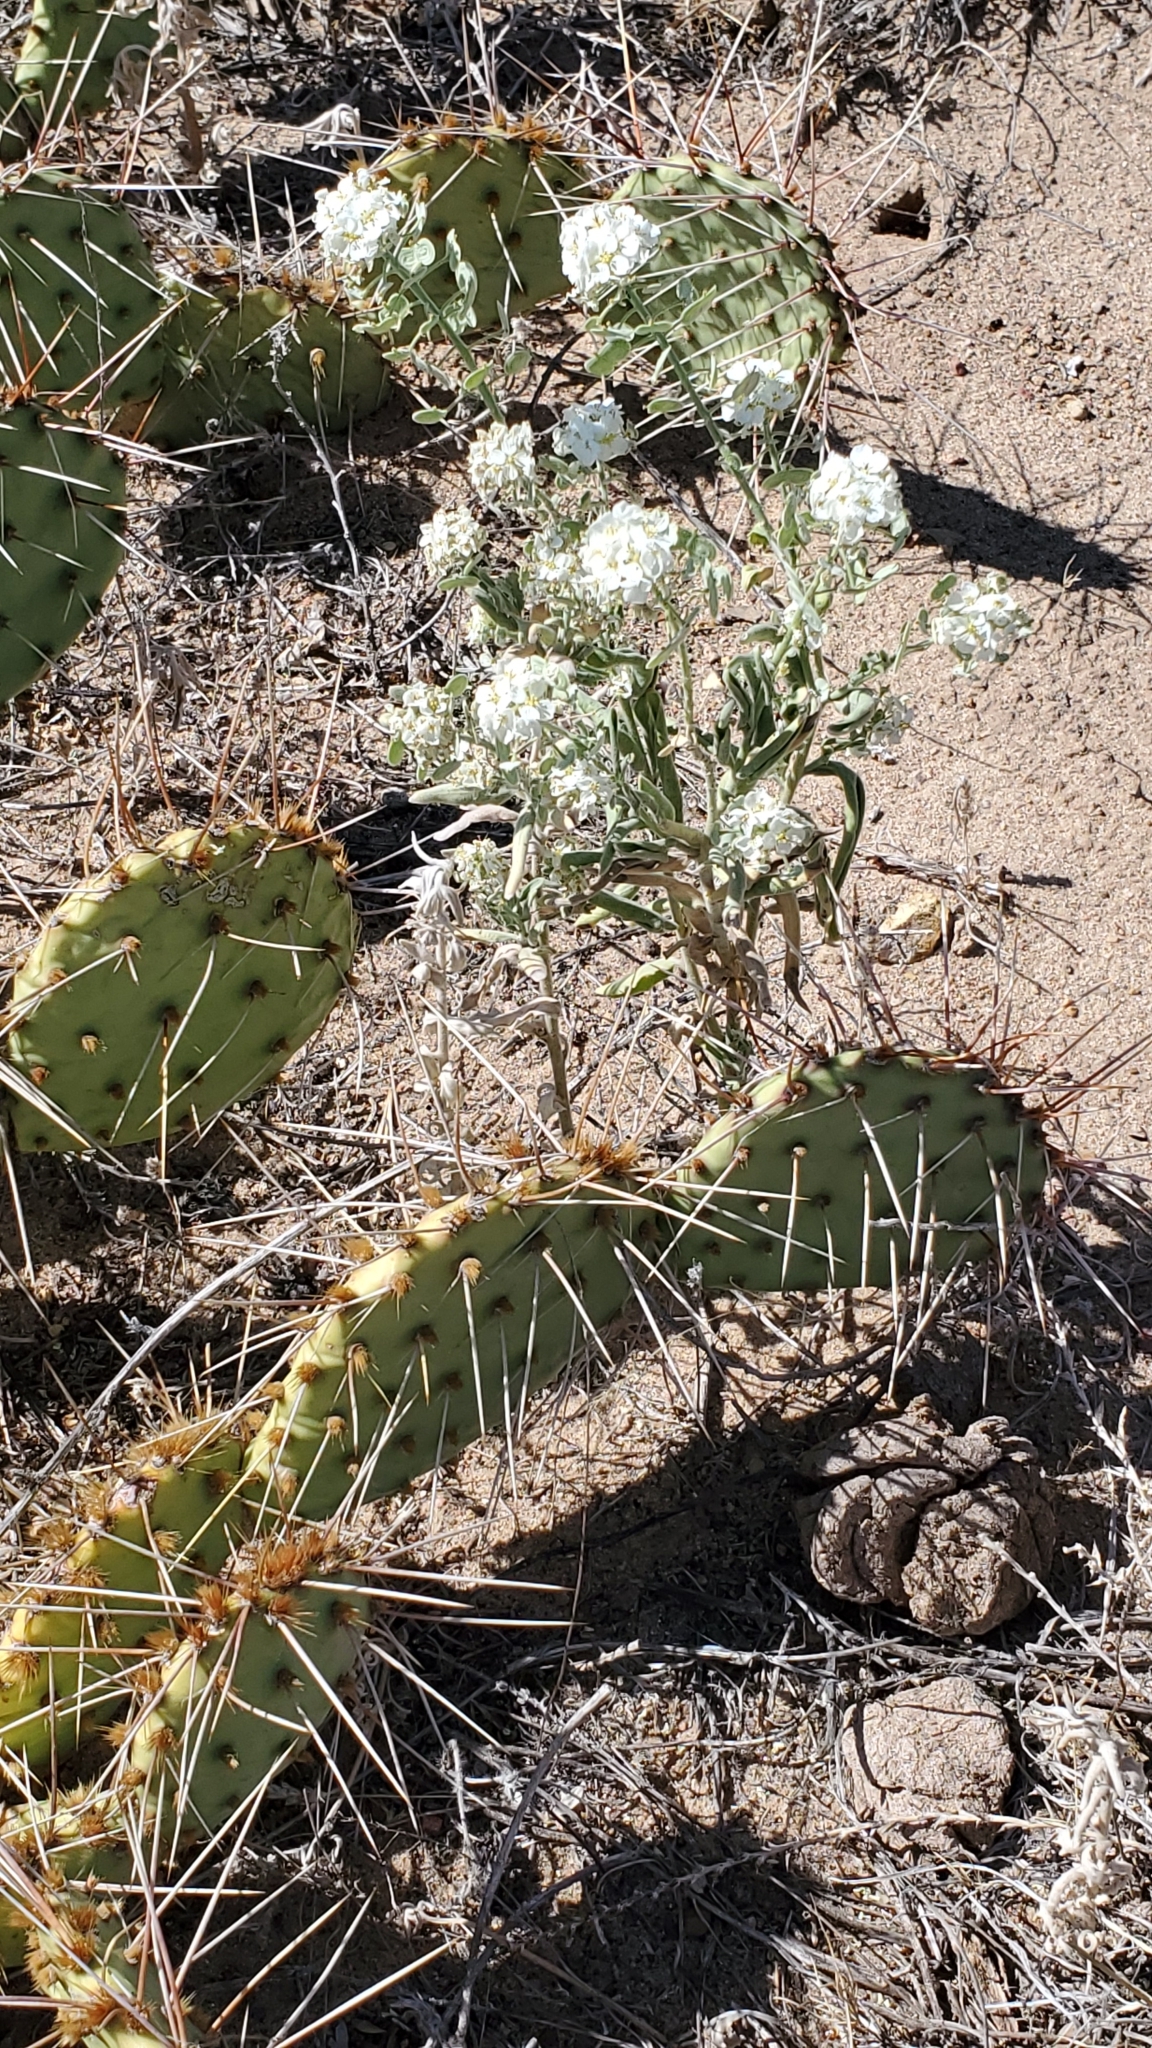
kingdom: Plantae
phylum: Tracheophyta
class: Magnoliopsida
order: Brassicales
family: Brassicaceae
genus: Dimorphocarpa
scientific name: Dimorphocarpa wislizenii
